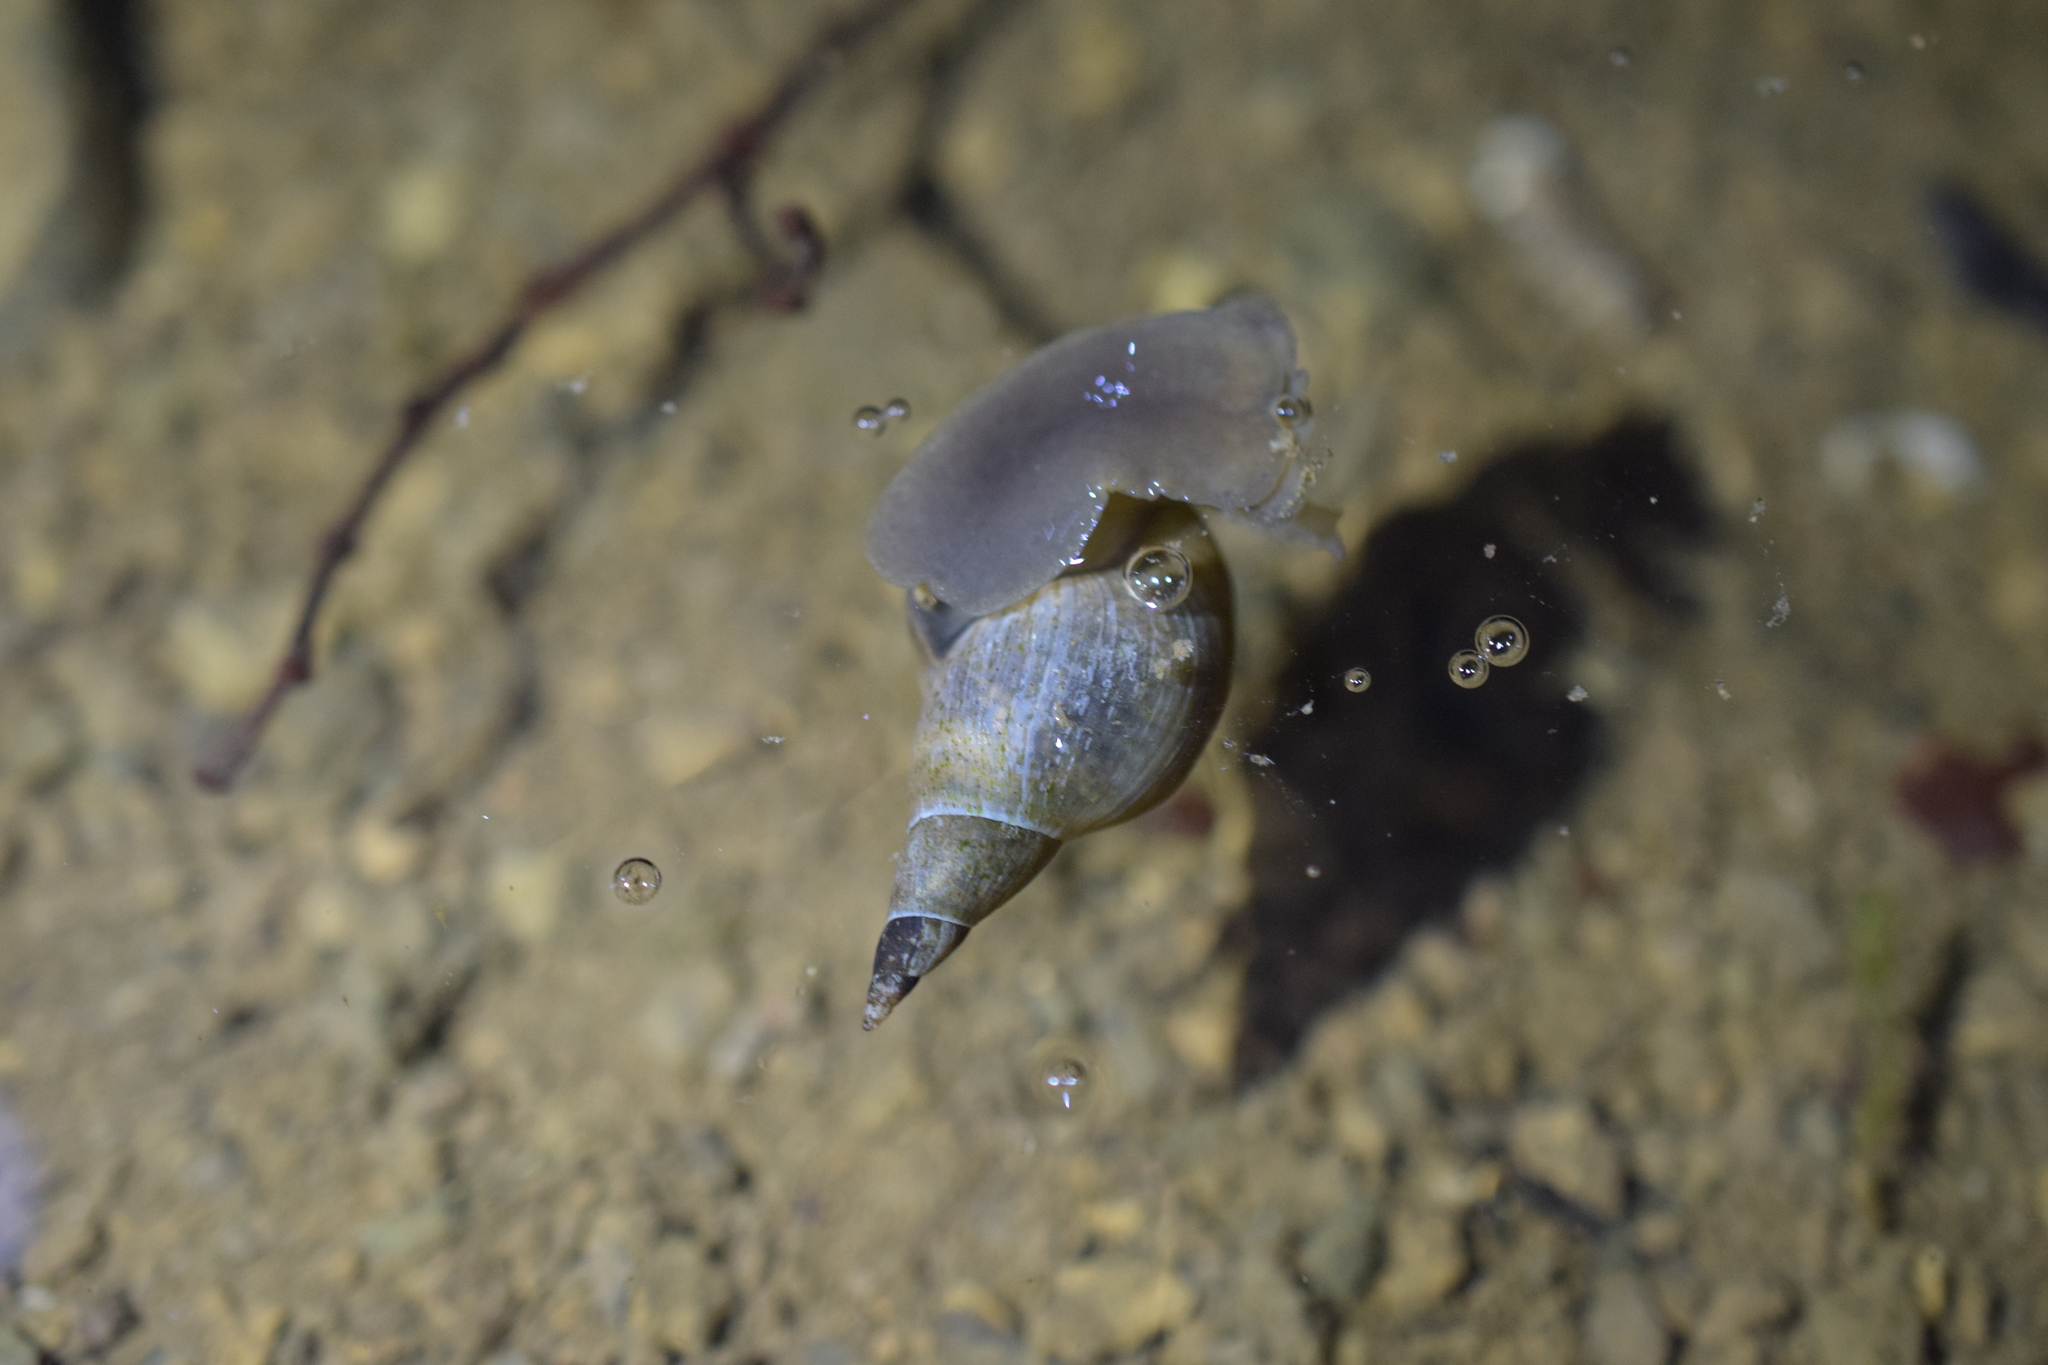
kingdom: Animalia
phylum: Mollusca
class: Gastropoda
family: Lymnaeidae
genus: Lymnaea
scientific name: Lymnaea stagnalis
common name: Great pond snail
